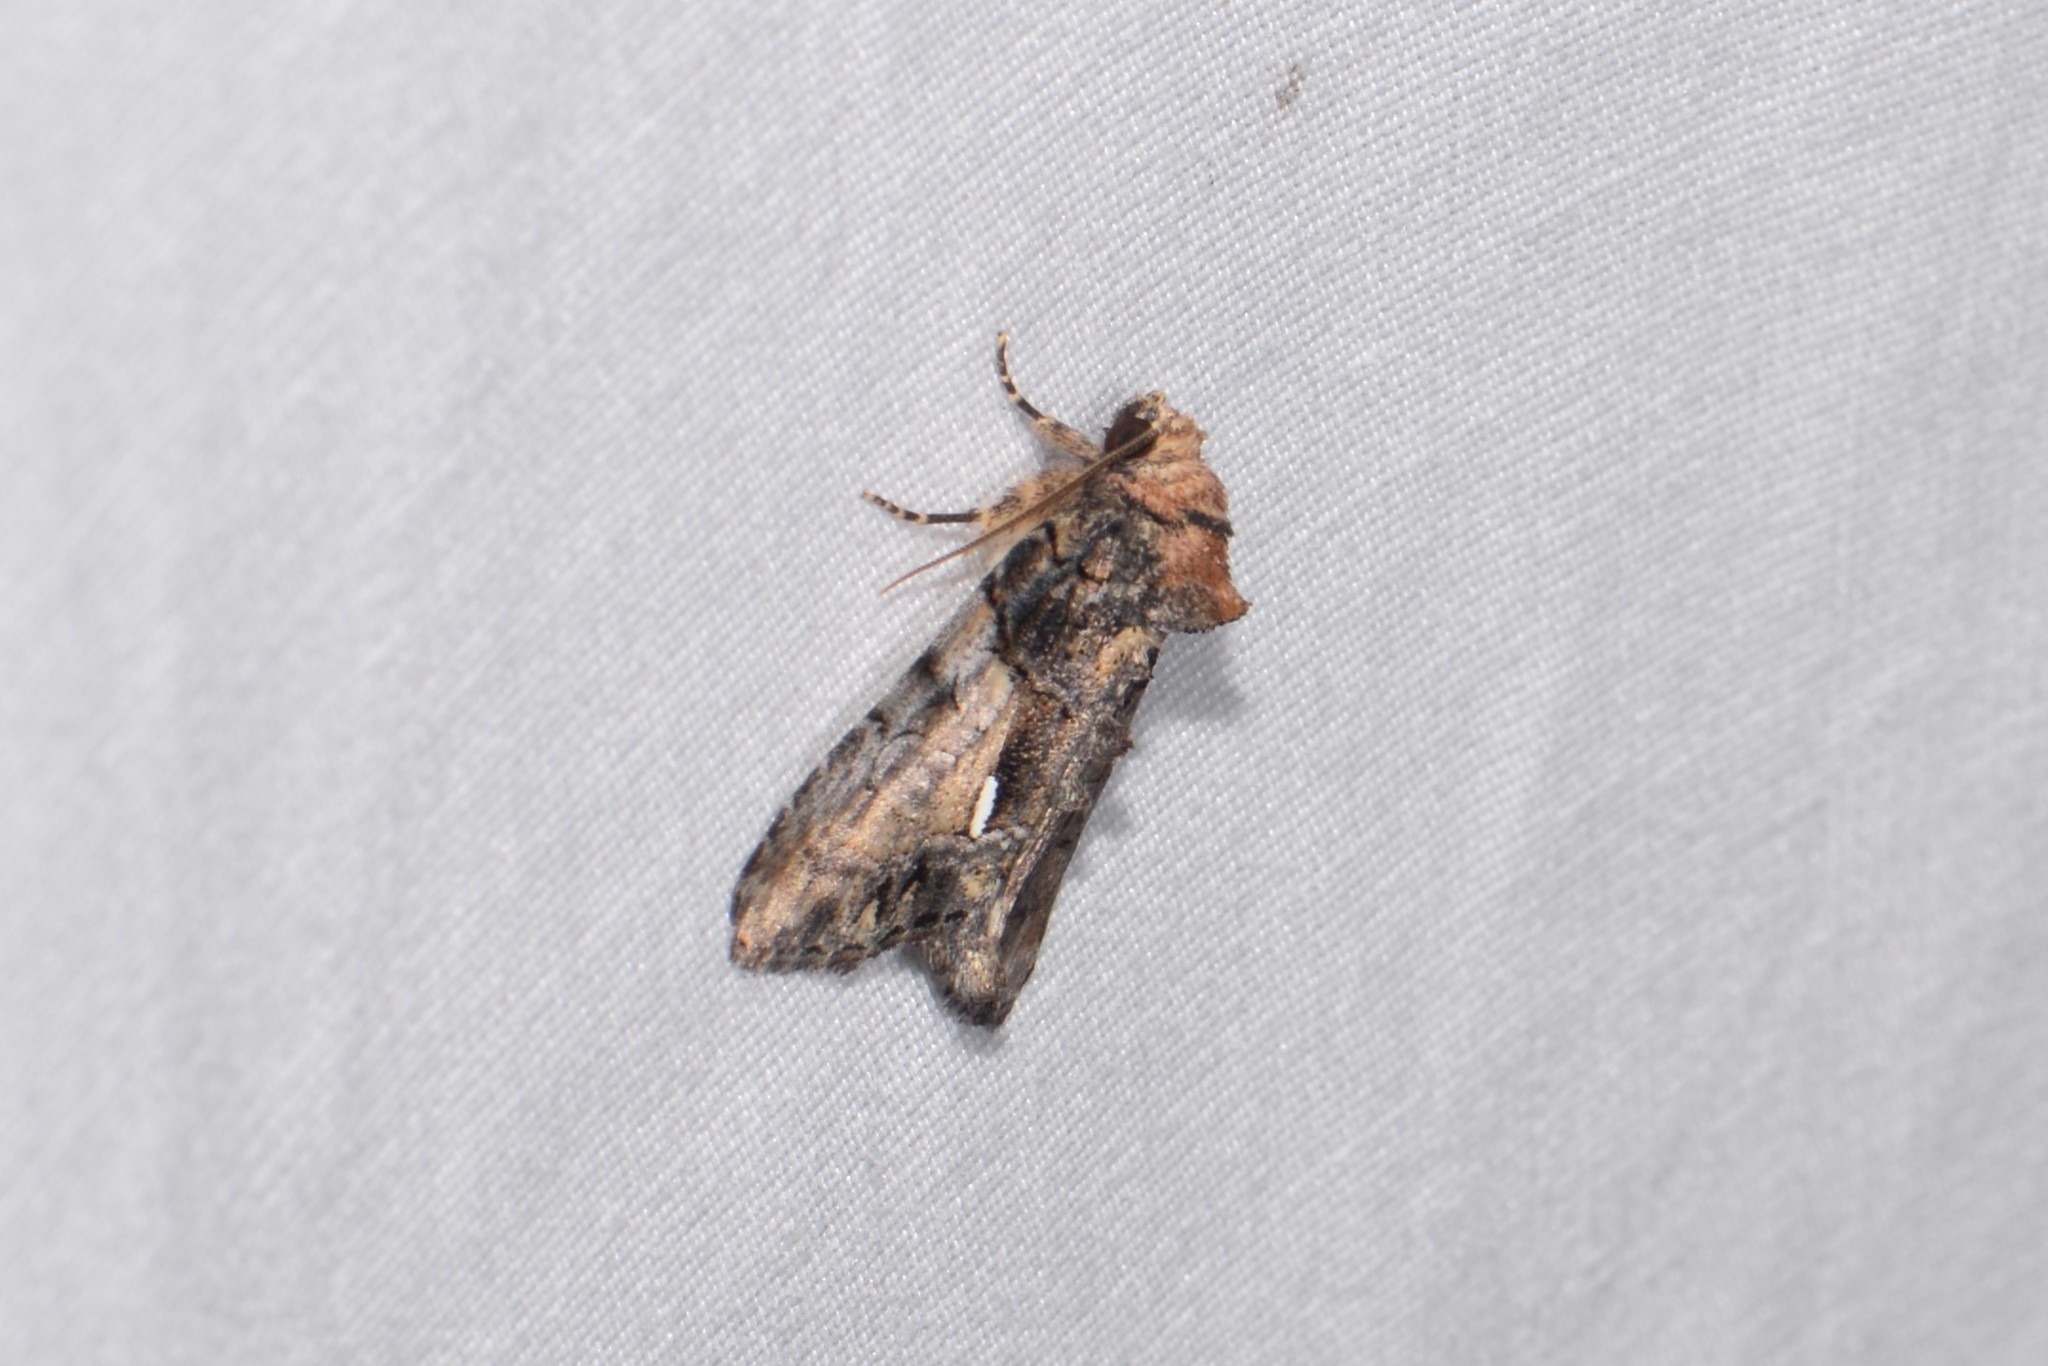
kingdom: Animalia
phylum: Arthropoda
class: Insecta
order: Lepidoptera
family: Noctuidae
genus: Chytonix
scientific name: Chytonix palliatricula
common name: Cloaked marvel
